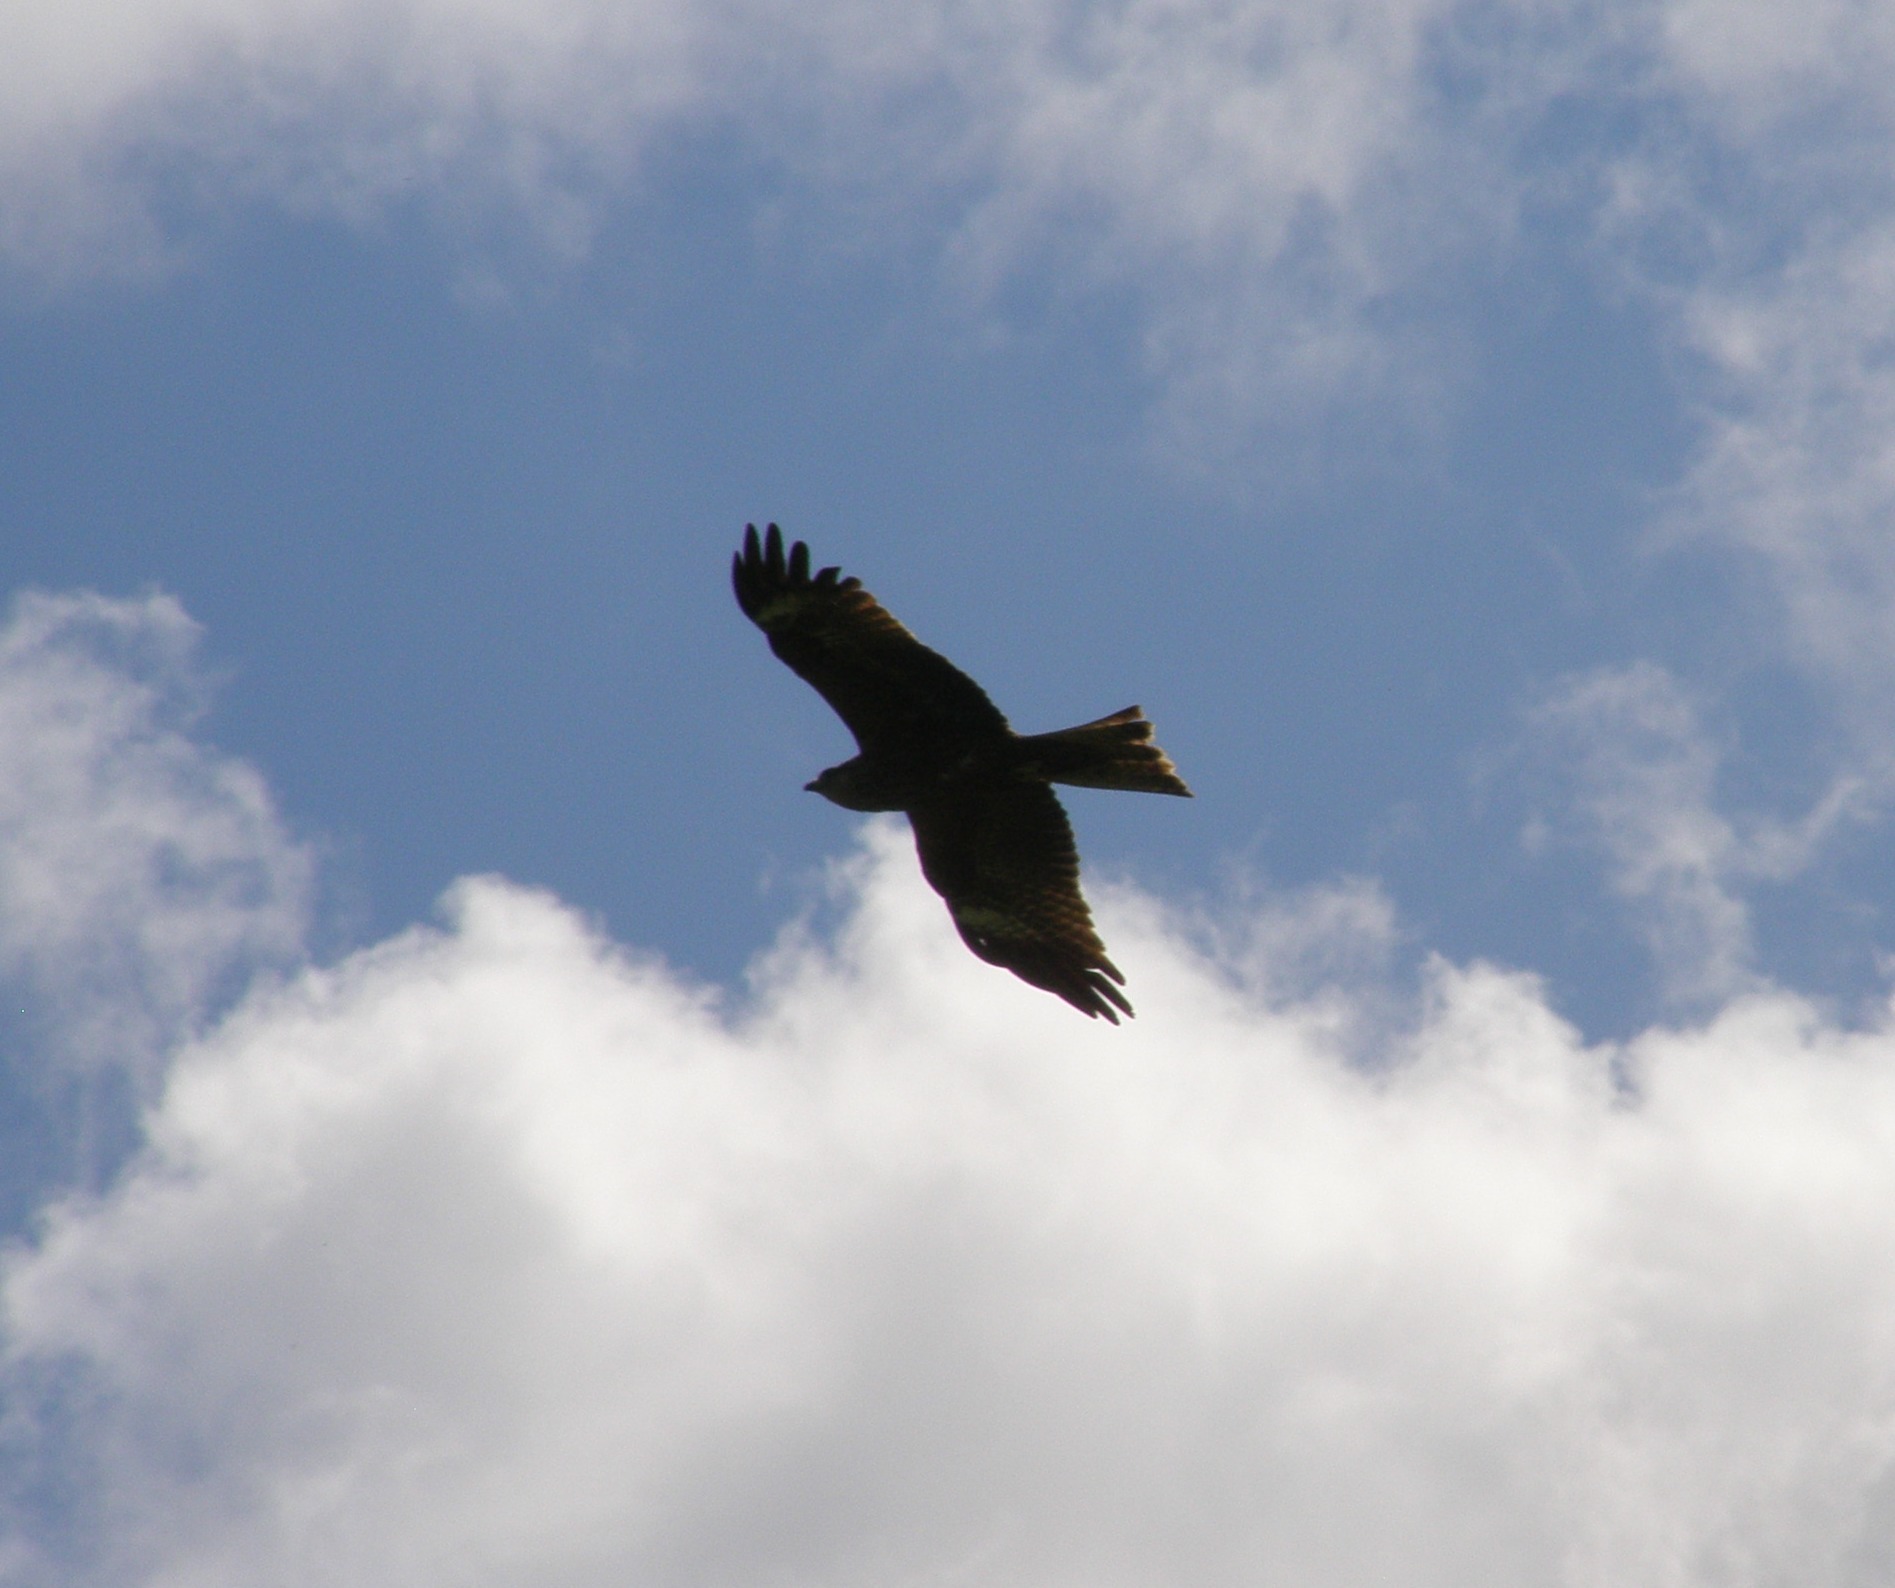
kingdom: Animalia
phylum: Chordata
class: Aves
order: Accipitriformes
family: Accipitridae
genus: Milvus
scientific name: Milvus migrans
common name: Black kite
